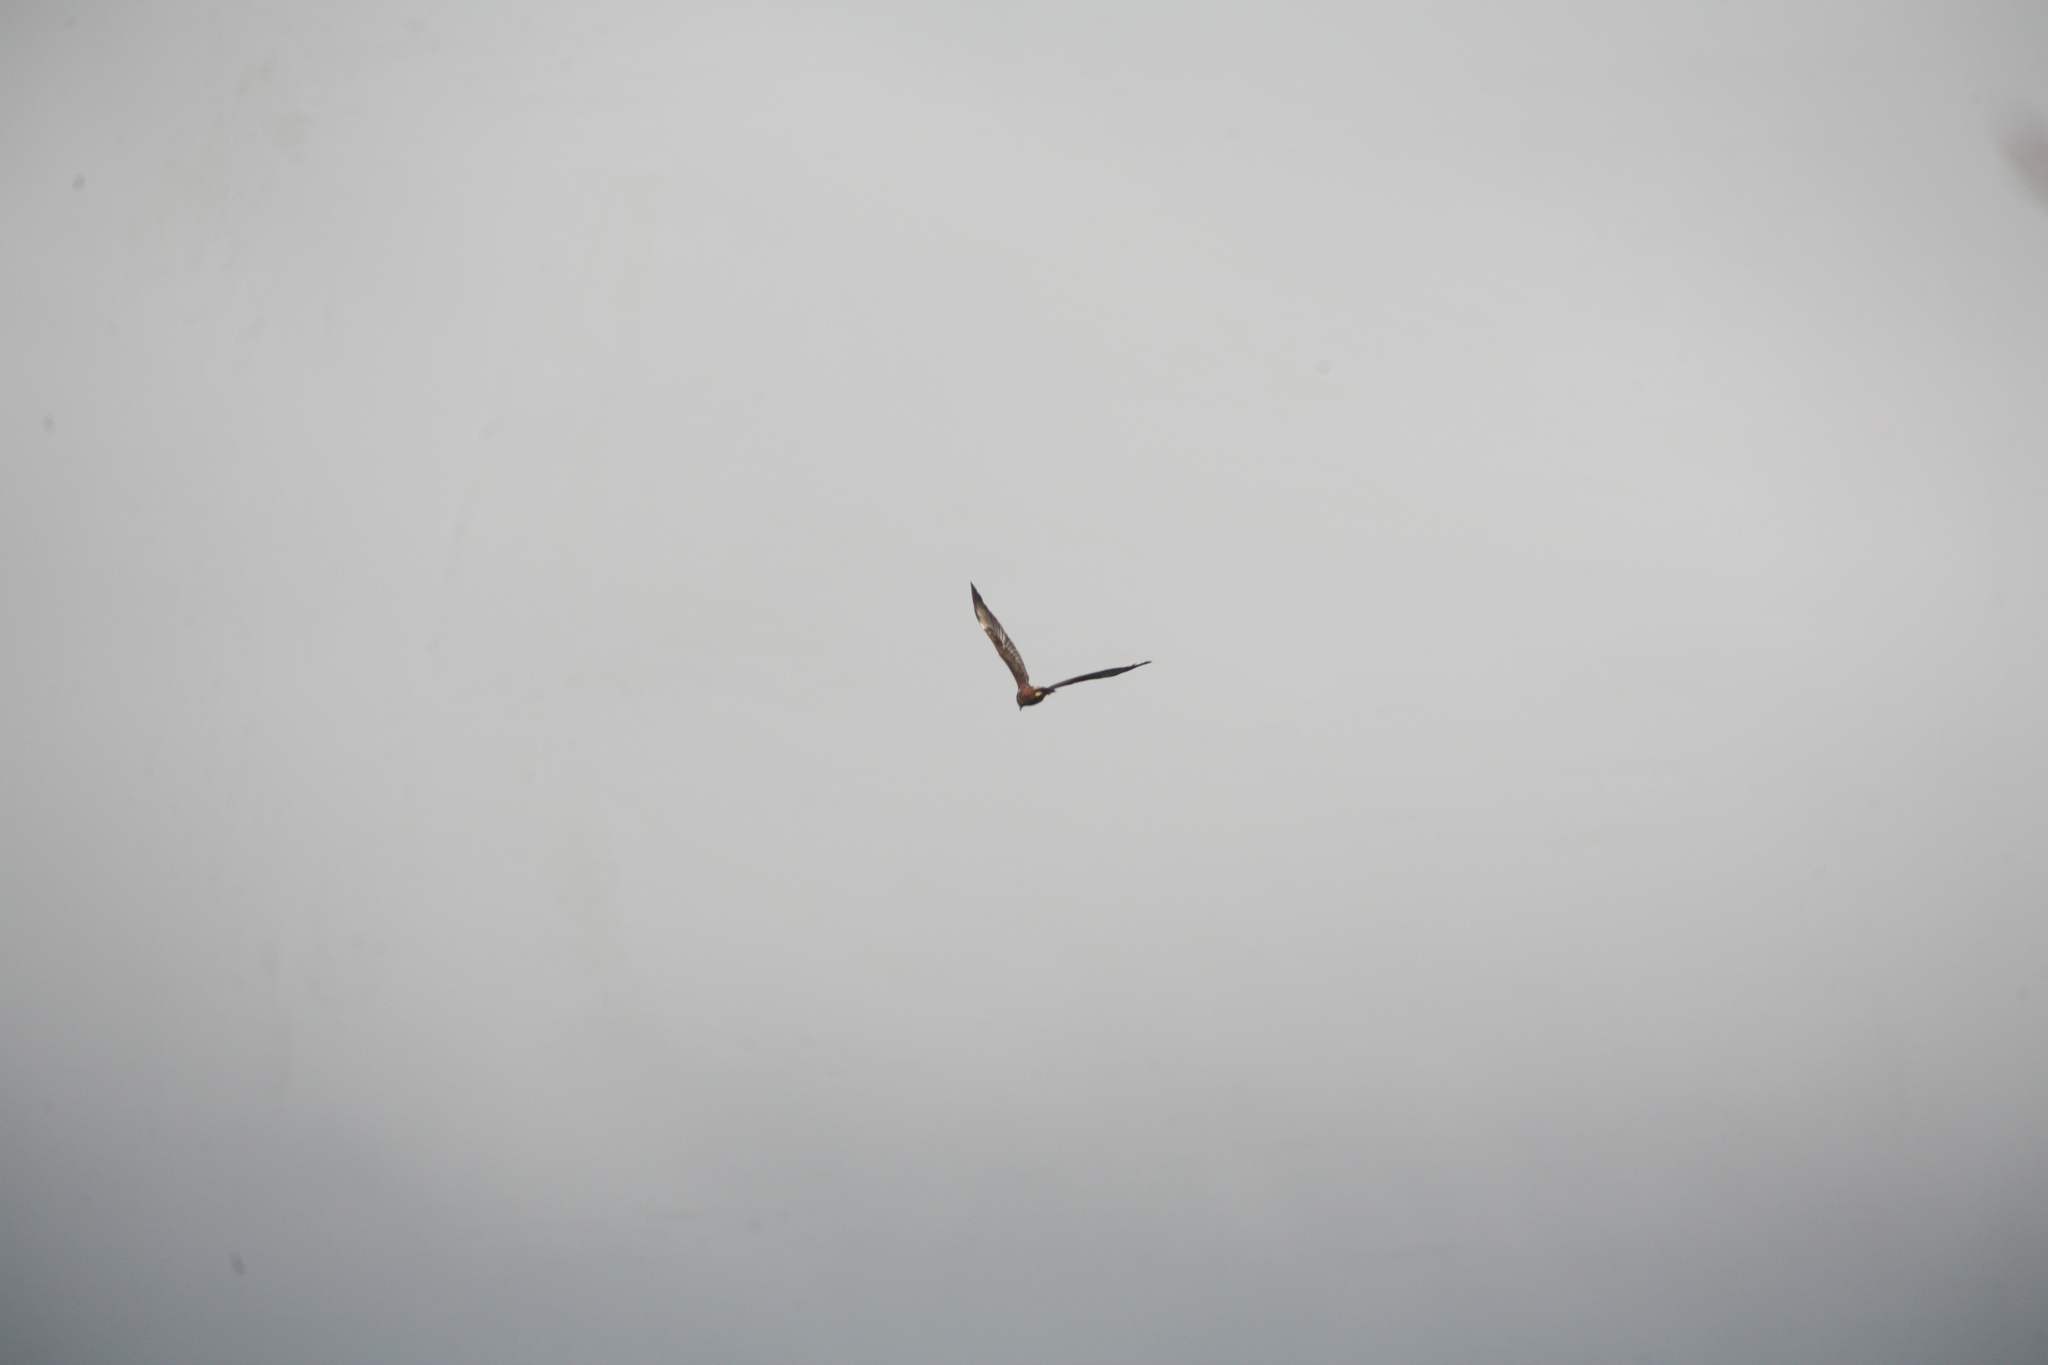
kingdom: Animalia
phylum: Chordata
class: Aves
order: Accipitriformes
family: Accipitridae
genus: Circus
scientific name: Circus approximans
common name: Swamp harrier
